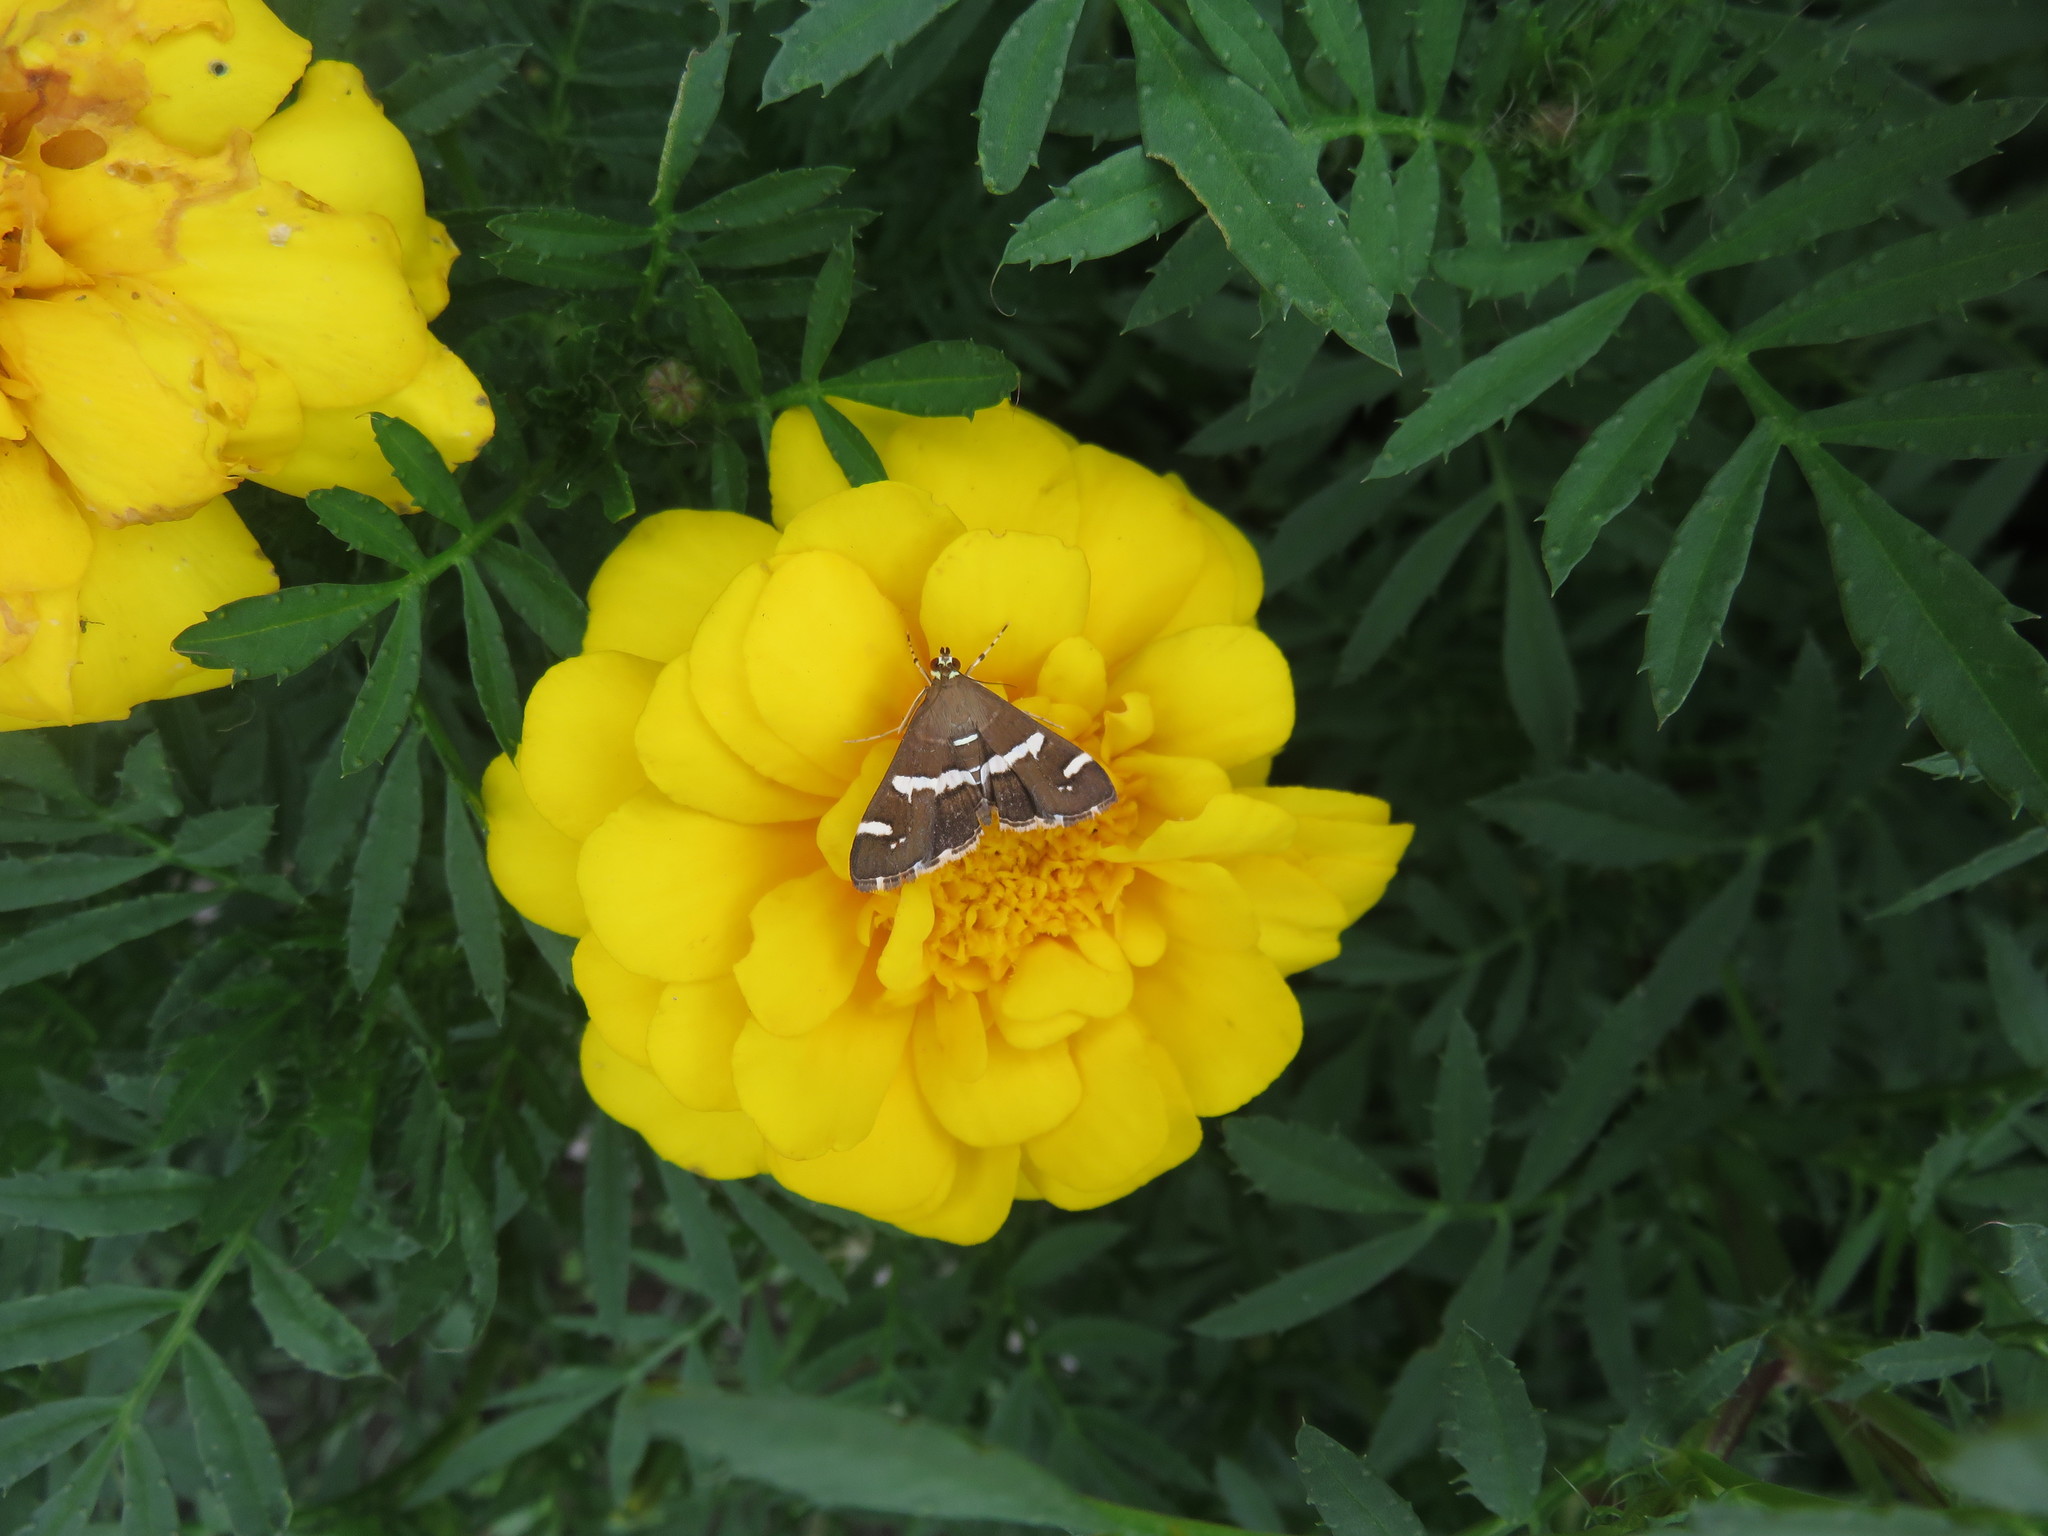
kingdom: Animalia
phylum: Arthropoda
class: Insecta
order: Lepidoptera
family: Crambidae
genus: Spoladea
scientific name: Spoladea recurvalis
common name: Beet webworm moth
